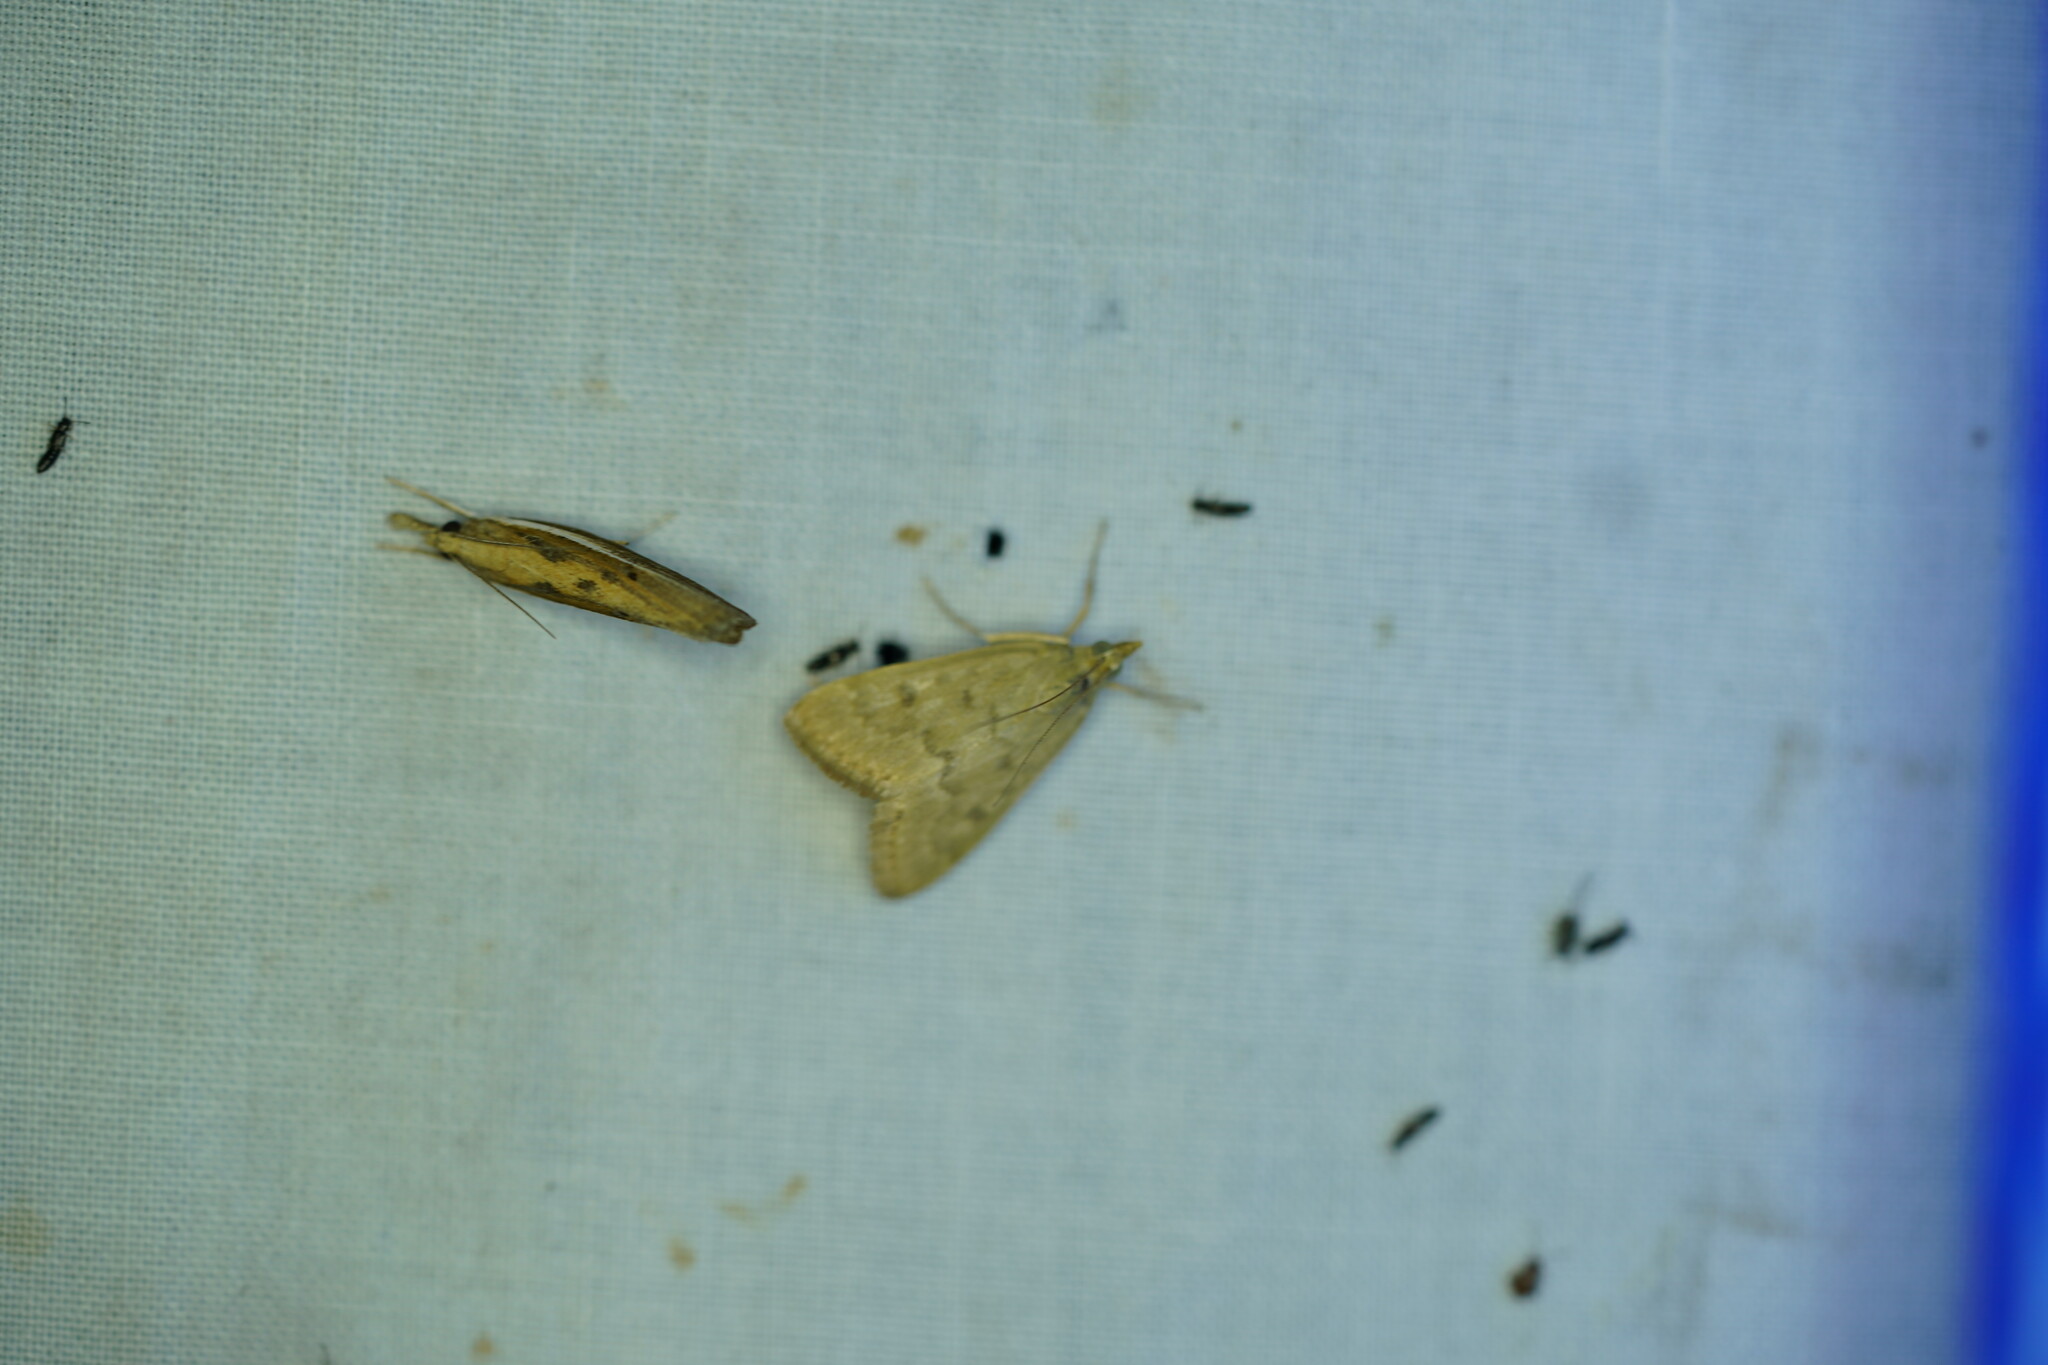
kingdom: Animalia
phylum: Arthropoda
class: Insecta
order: Lepidoptera
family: Crambidae
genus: Achyra
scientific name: Achyra rantalis
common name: Garden webworm
